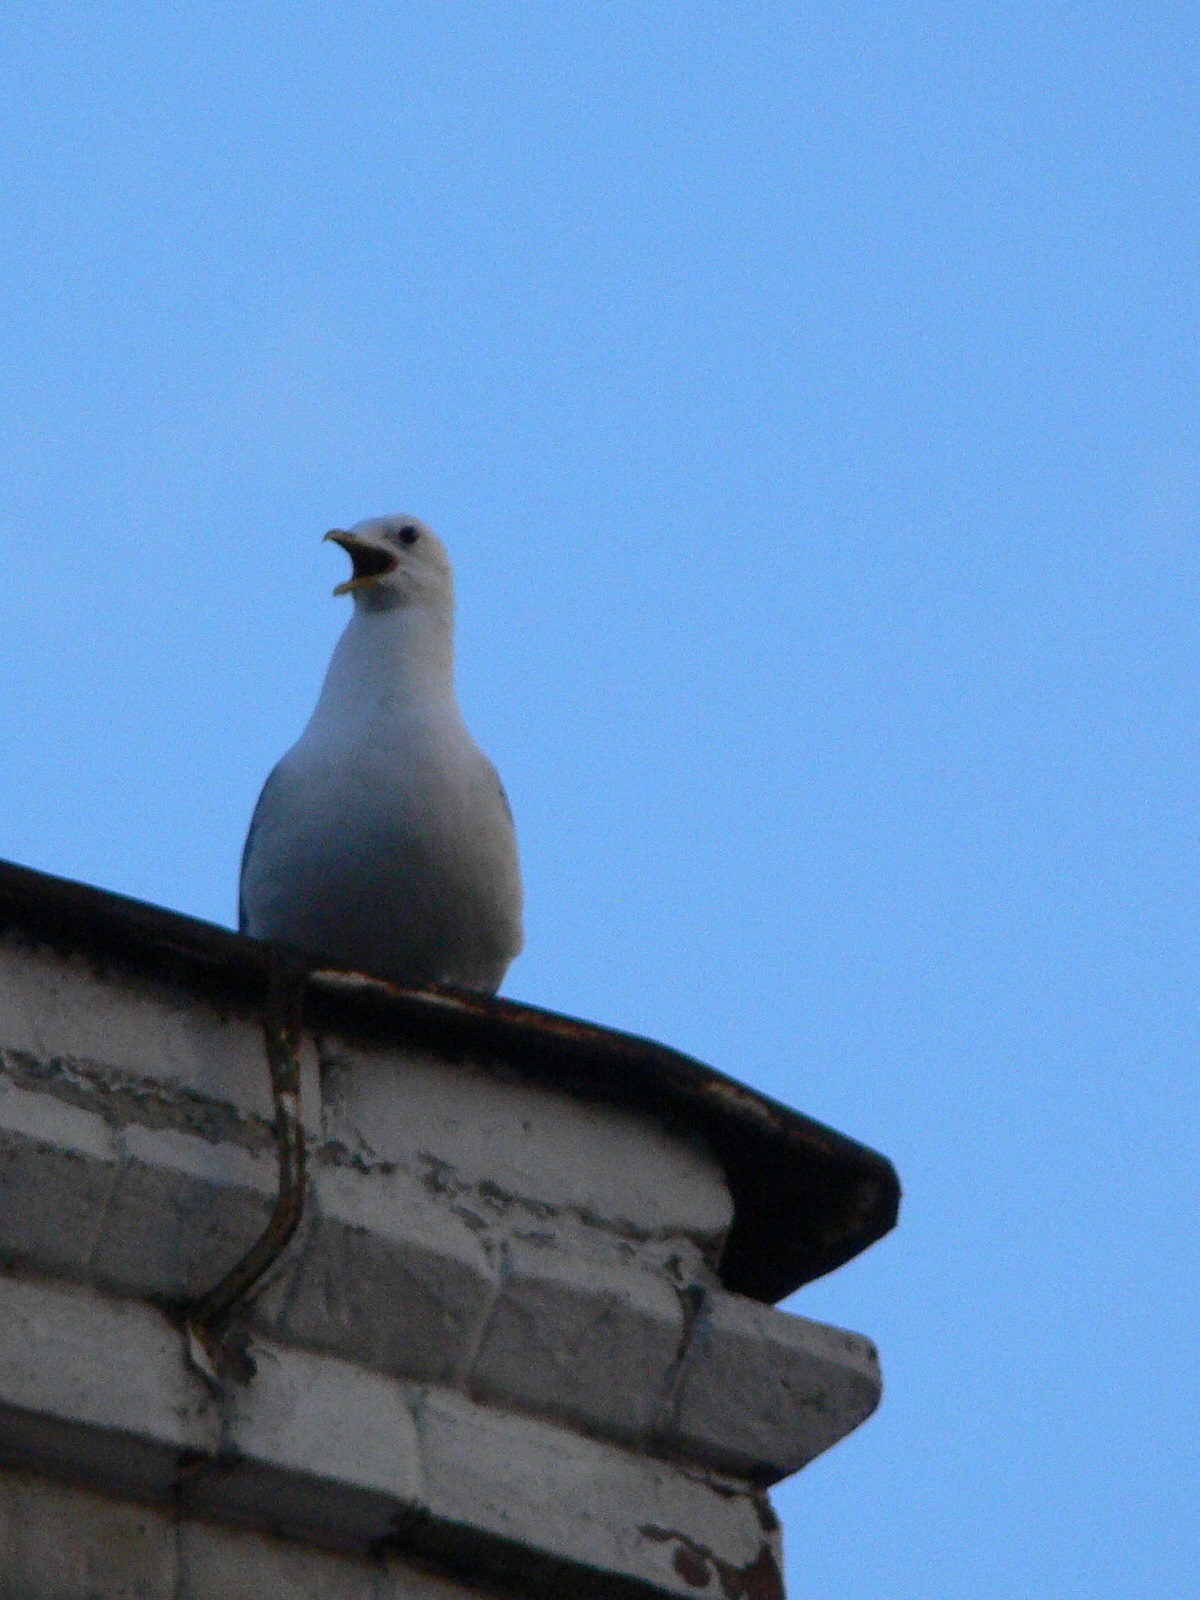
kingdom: Animalia
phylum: Chordata
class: Aves
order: Charadriiformes
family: Laridae
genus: Larus
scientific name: Larus canus
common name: Mew gull
